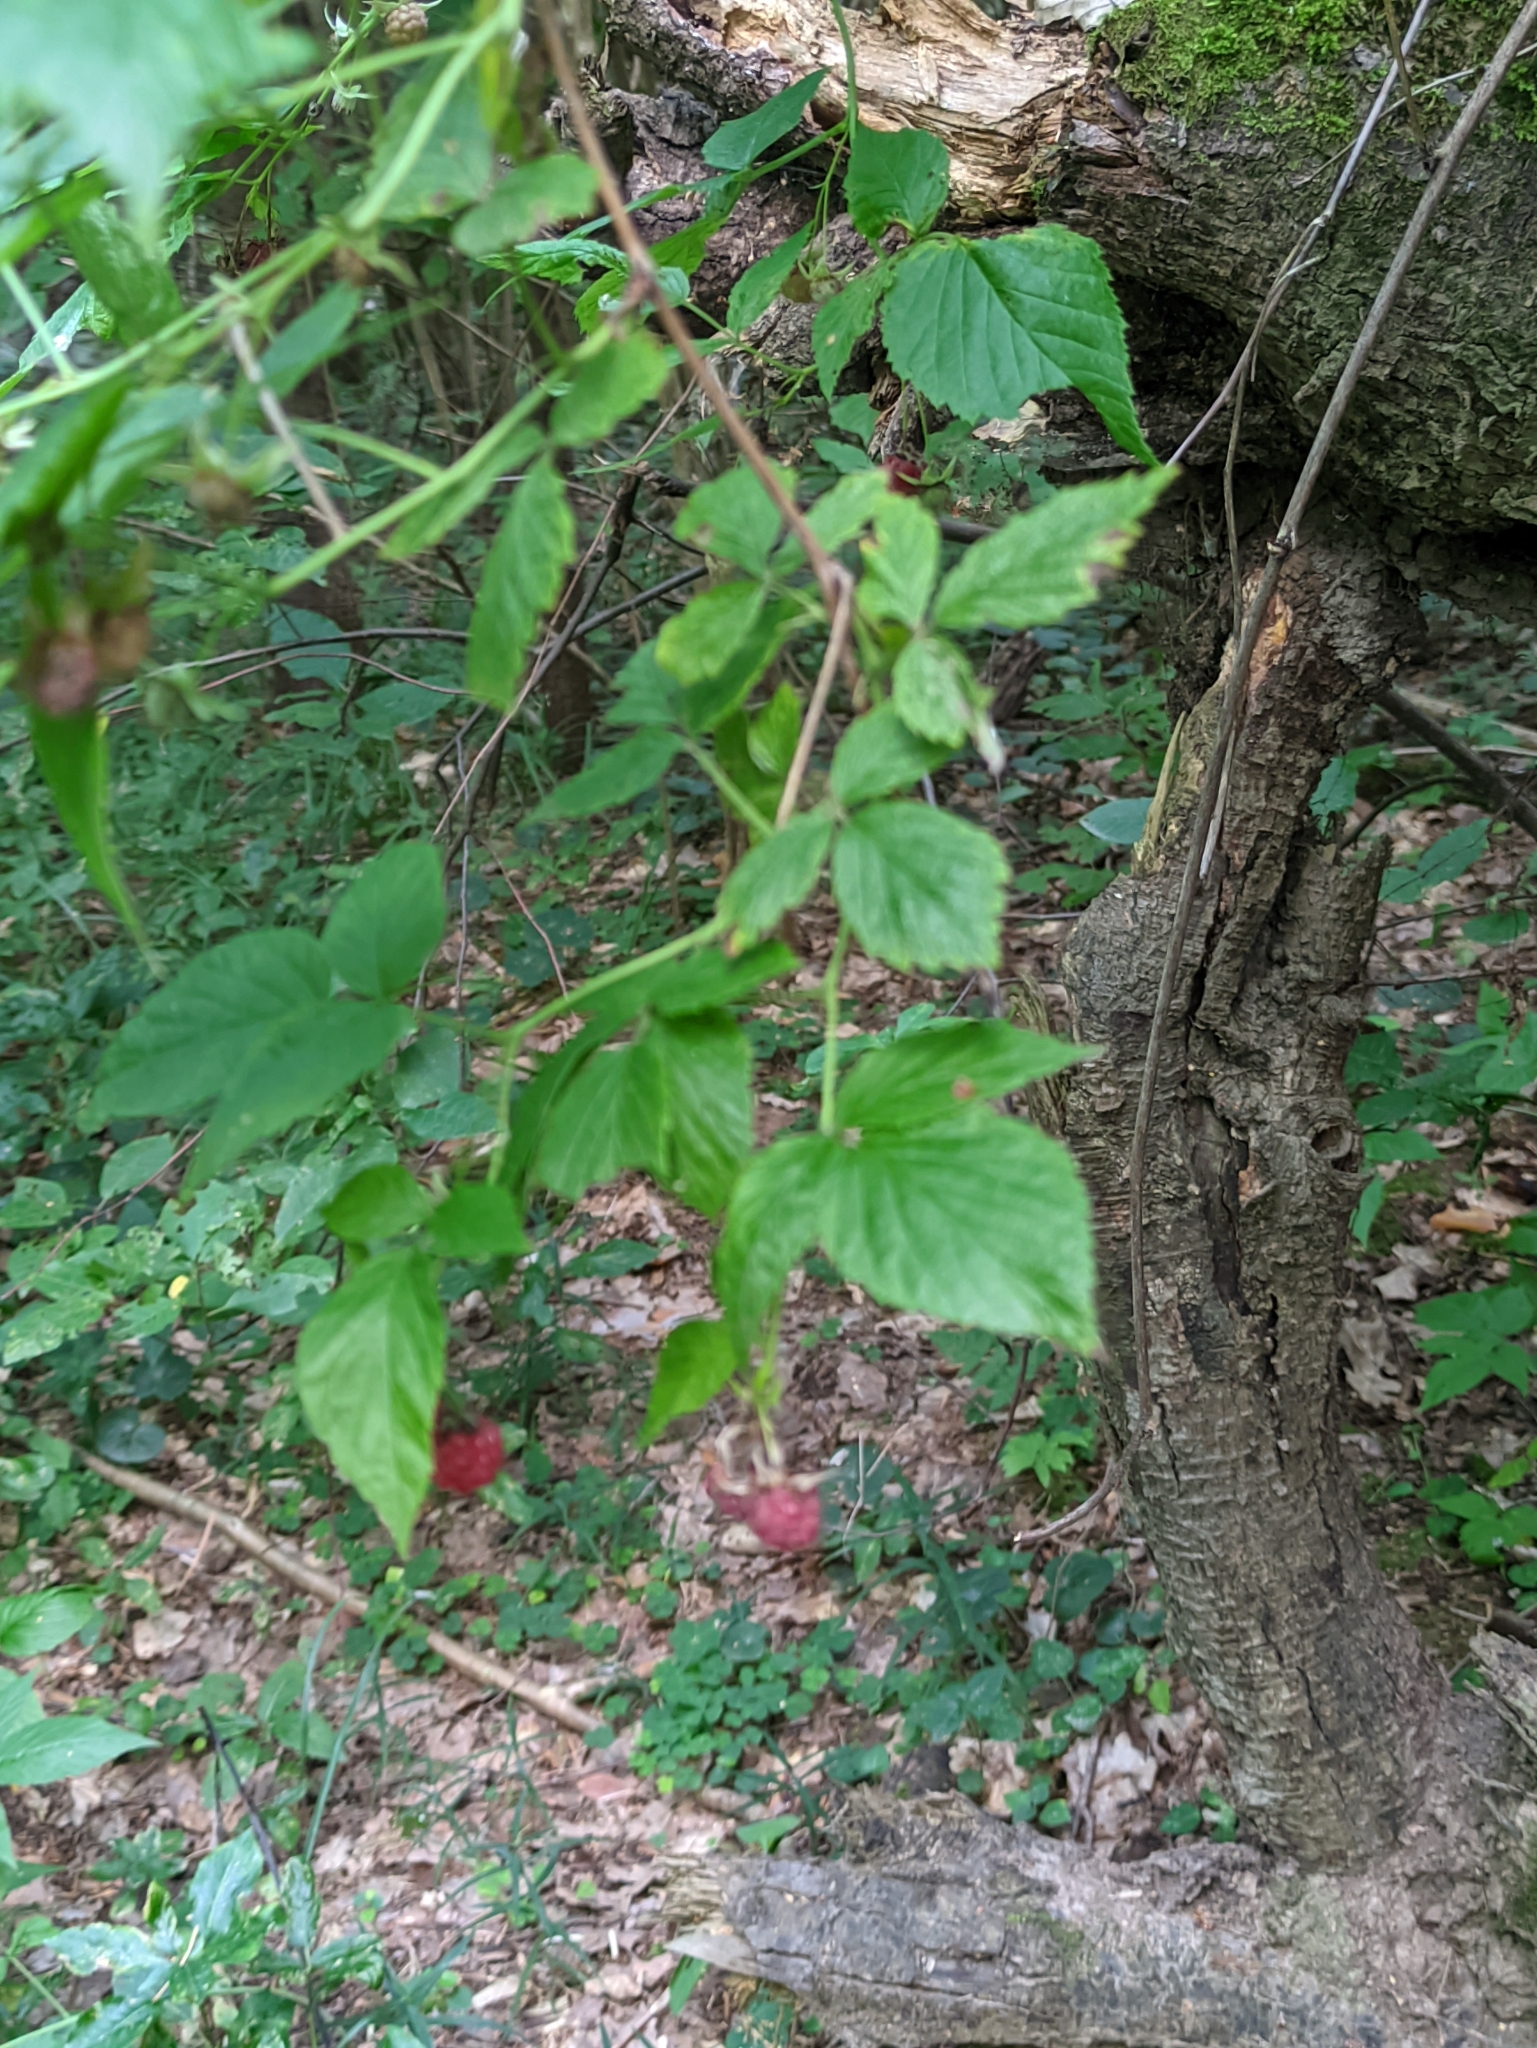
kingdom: Plantae
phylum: Tracheophyta
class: Magnoliopsida
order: Rosales
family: Rosaceae
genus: Rubus
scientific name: Rubus idaeus
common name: Raspberry
